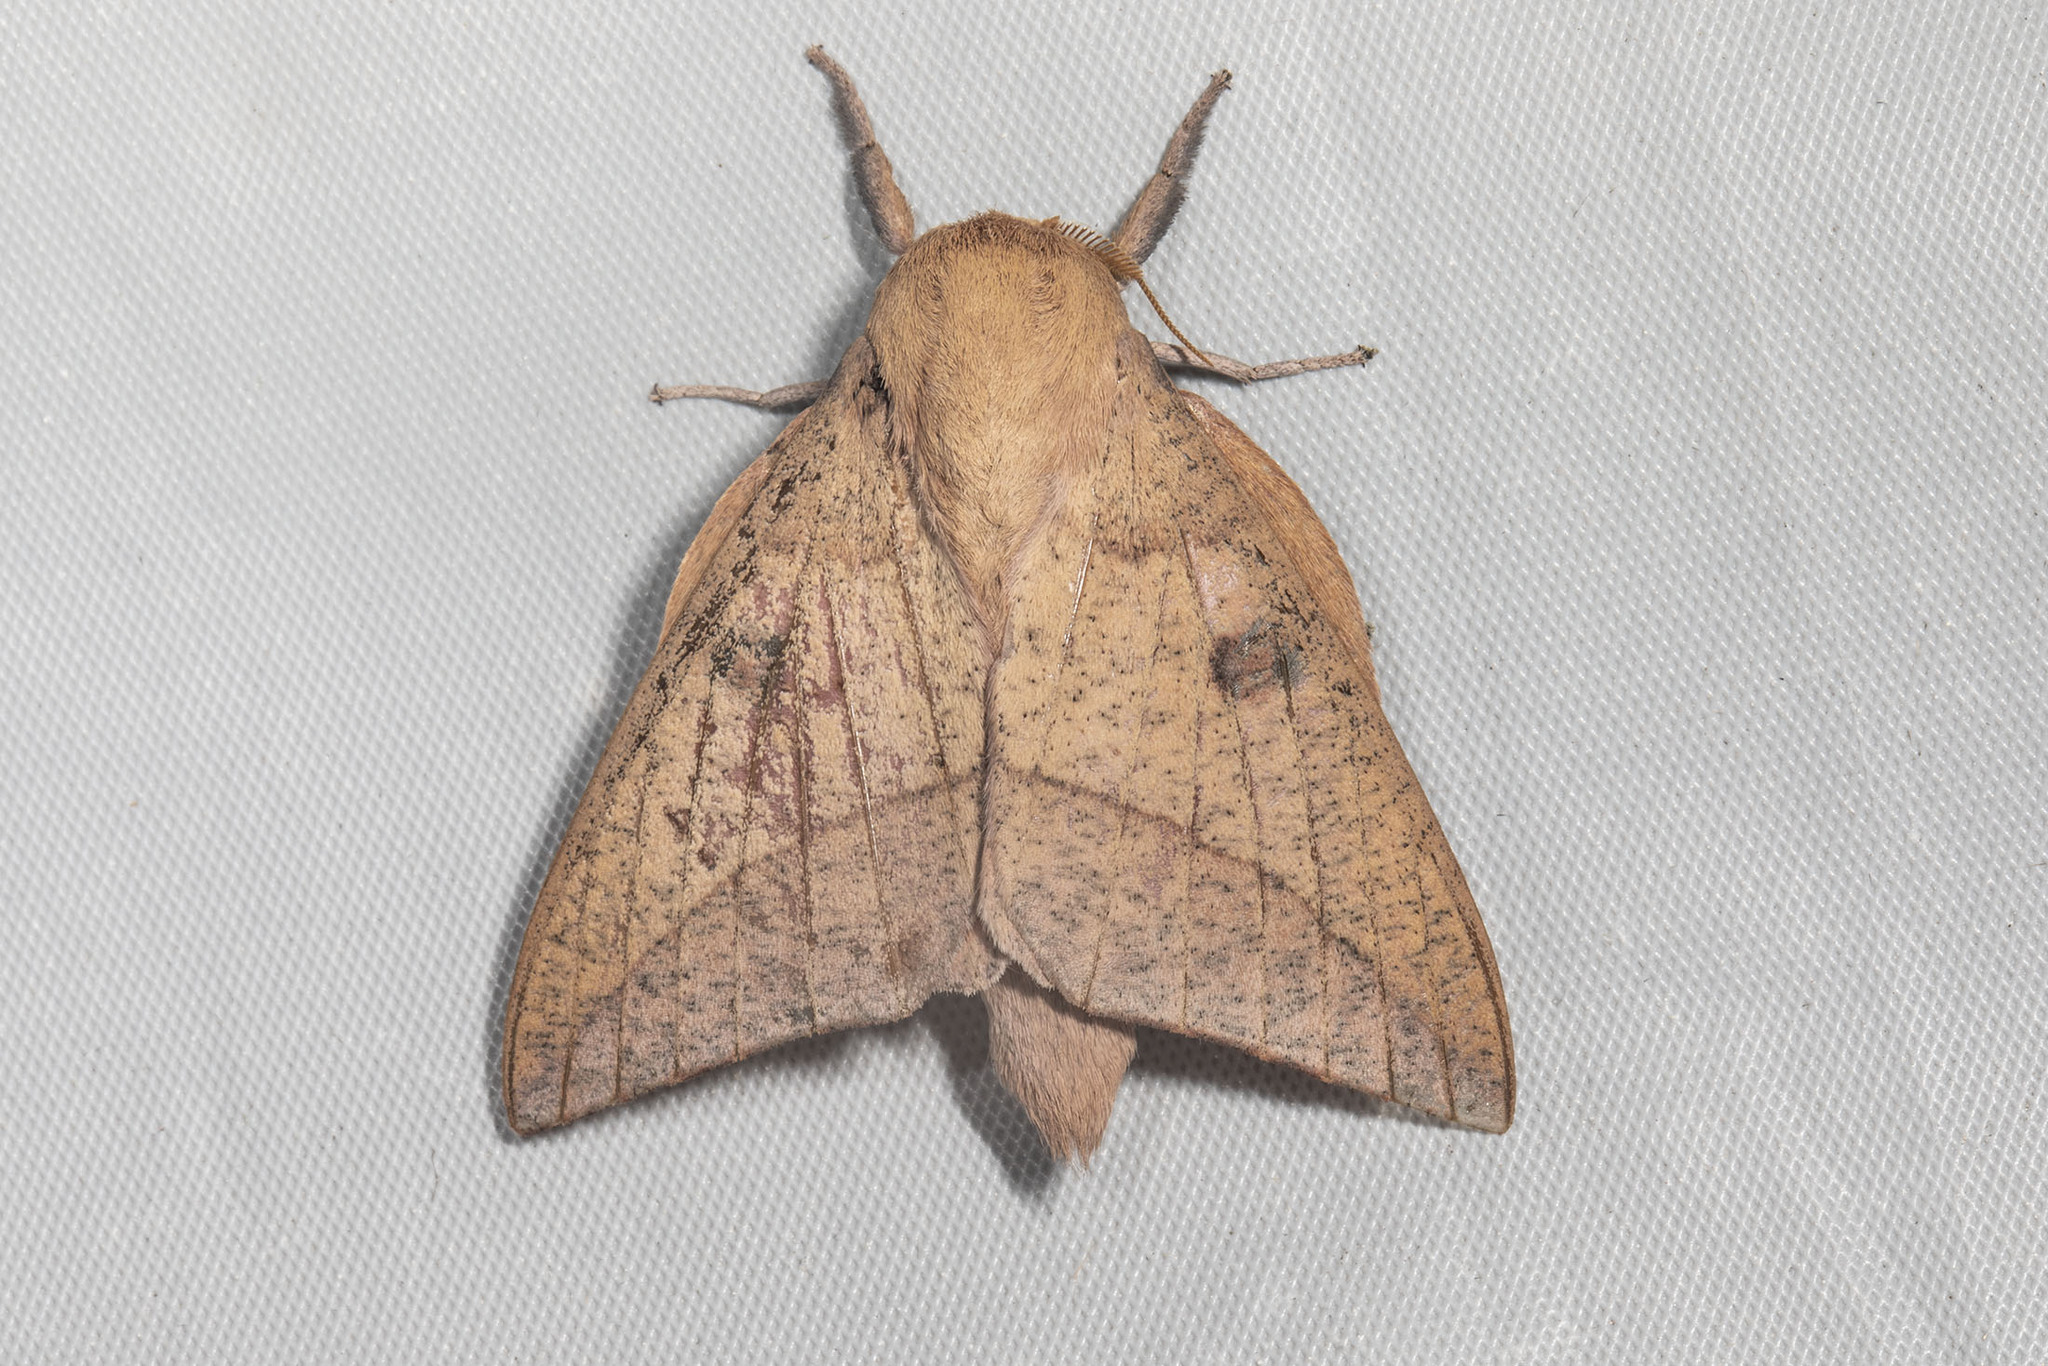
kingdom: Animalia
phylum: Arthropoda
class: Insecta
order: Lepidoptera
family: Saturniidae
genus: Adeloneivaia
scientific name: Adeloneivaia subangulata
